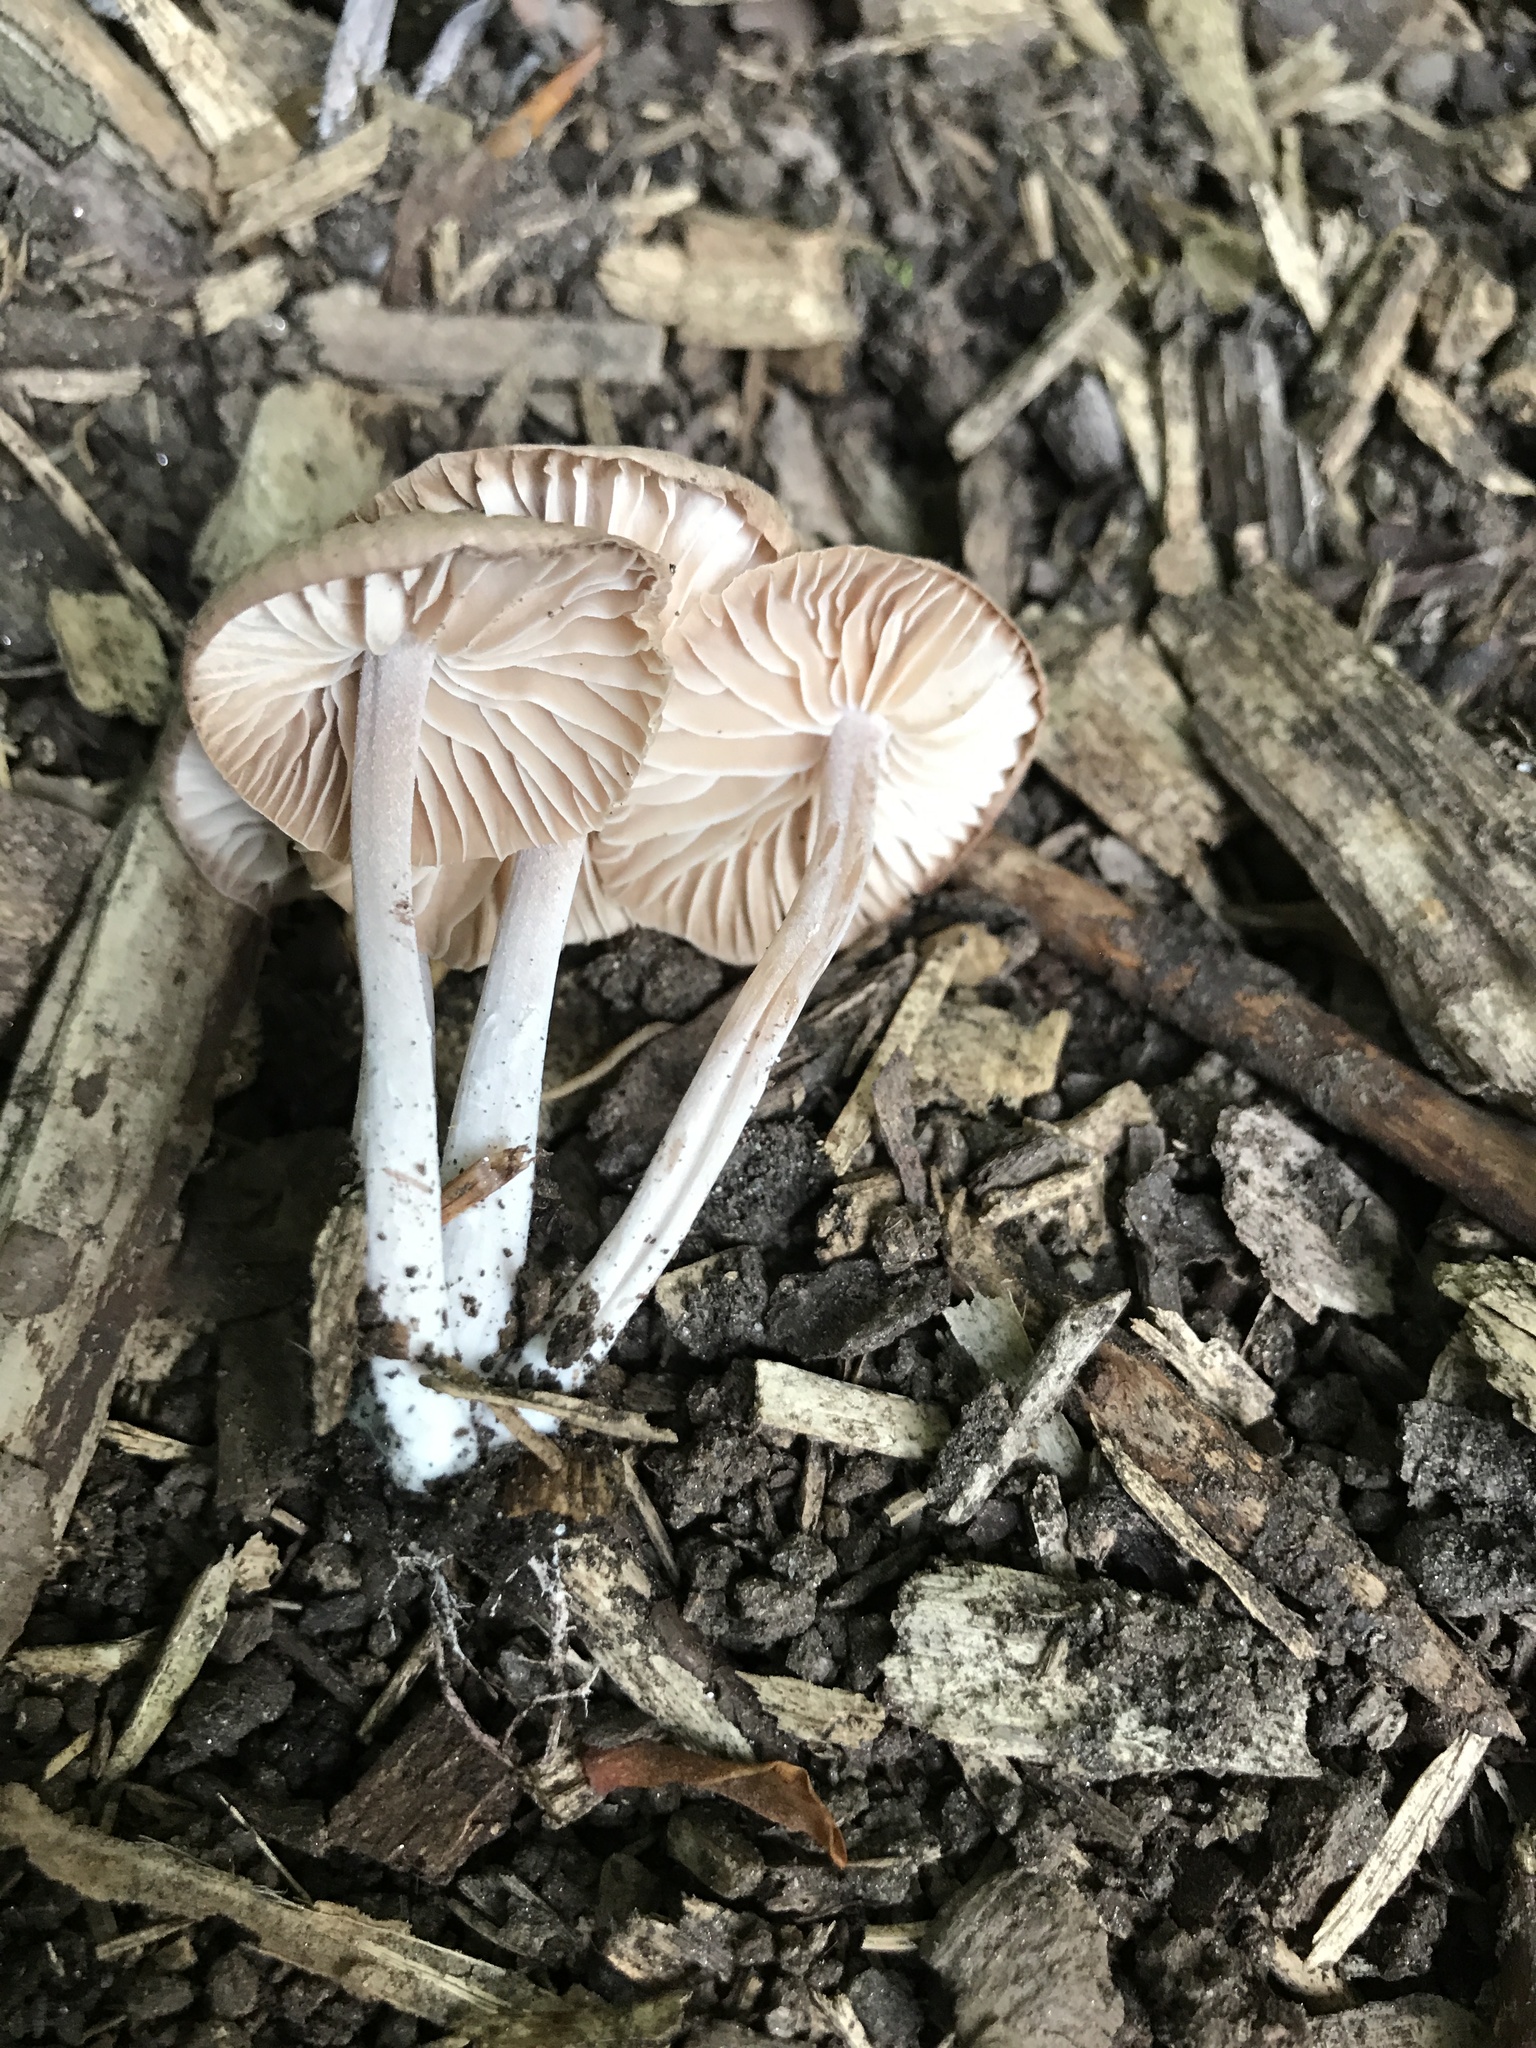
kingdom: Fungi
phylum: Basidiomycota
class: Agaricomycetes
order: Agaricales
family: Omphalotaceae
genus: Gymnopus
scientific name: Gymnopus dysodes
